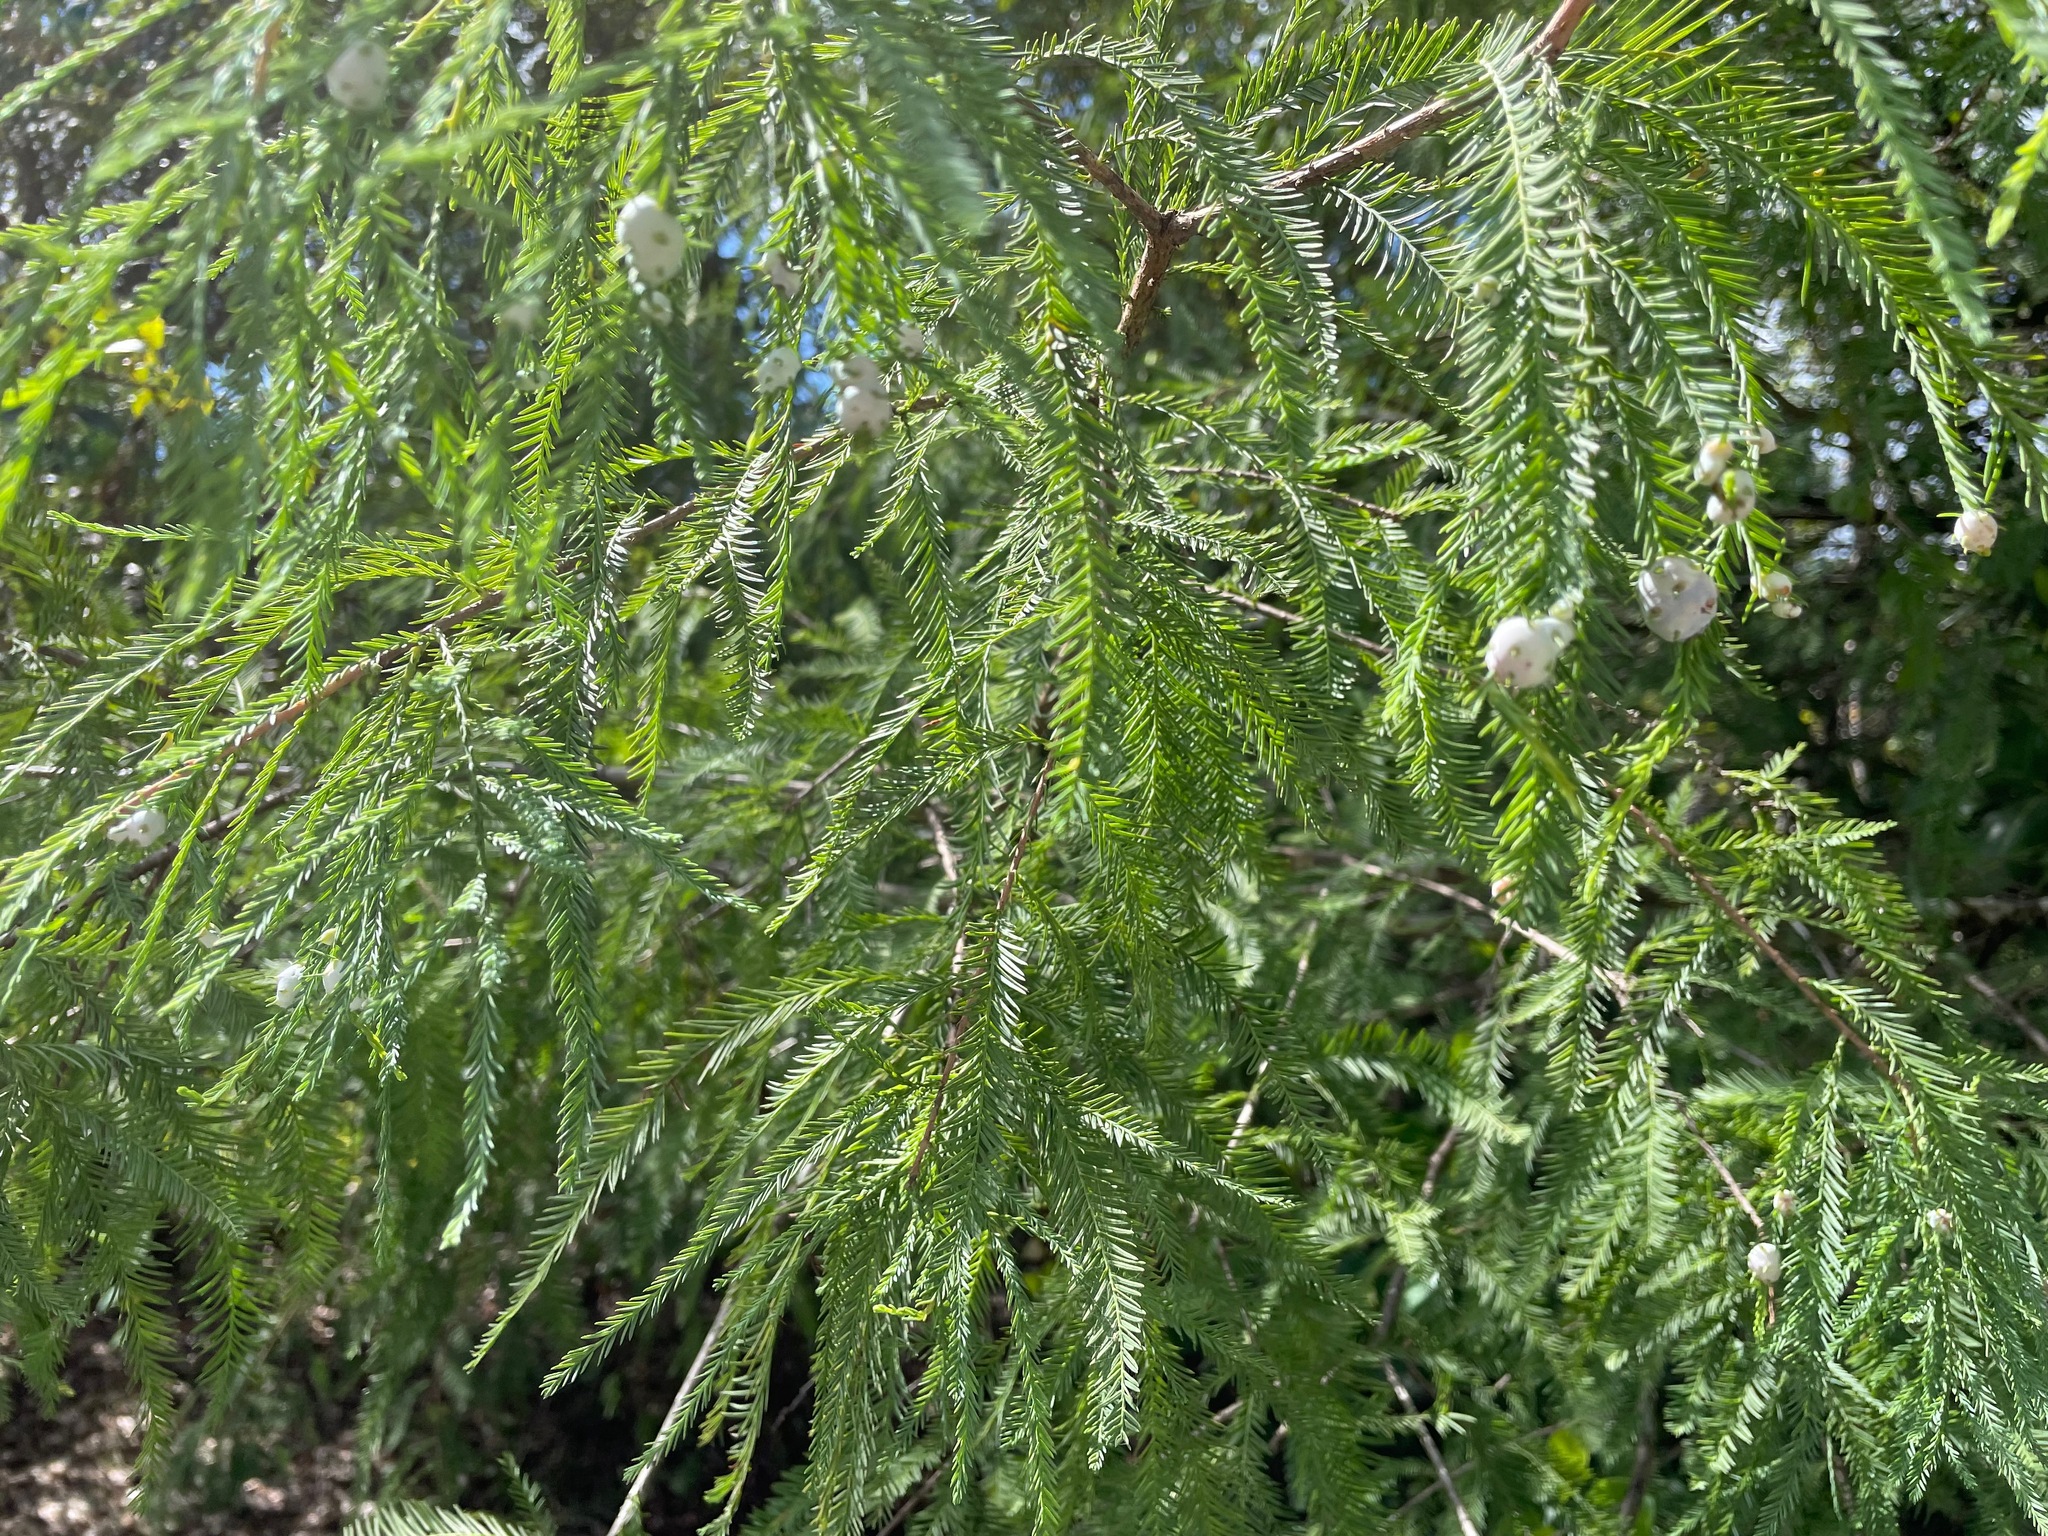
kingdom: Plantae
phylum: Tracheophyta
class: Pinopsida
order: Pinales
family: Cupressaceae
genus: Taxodium
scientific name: Taxodium distichum
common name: Bald cypress
